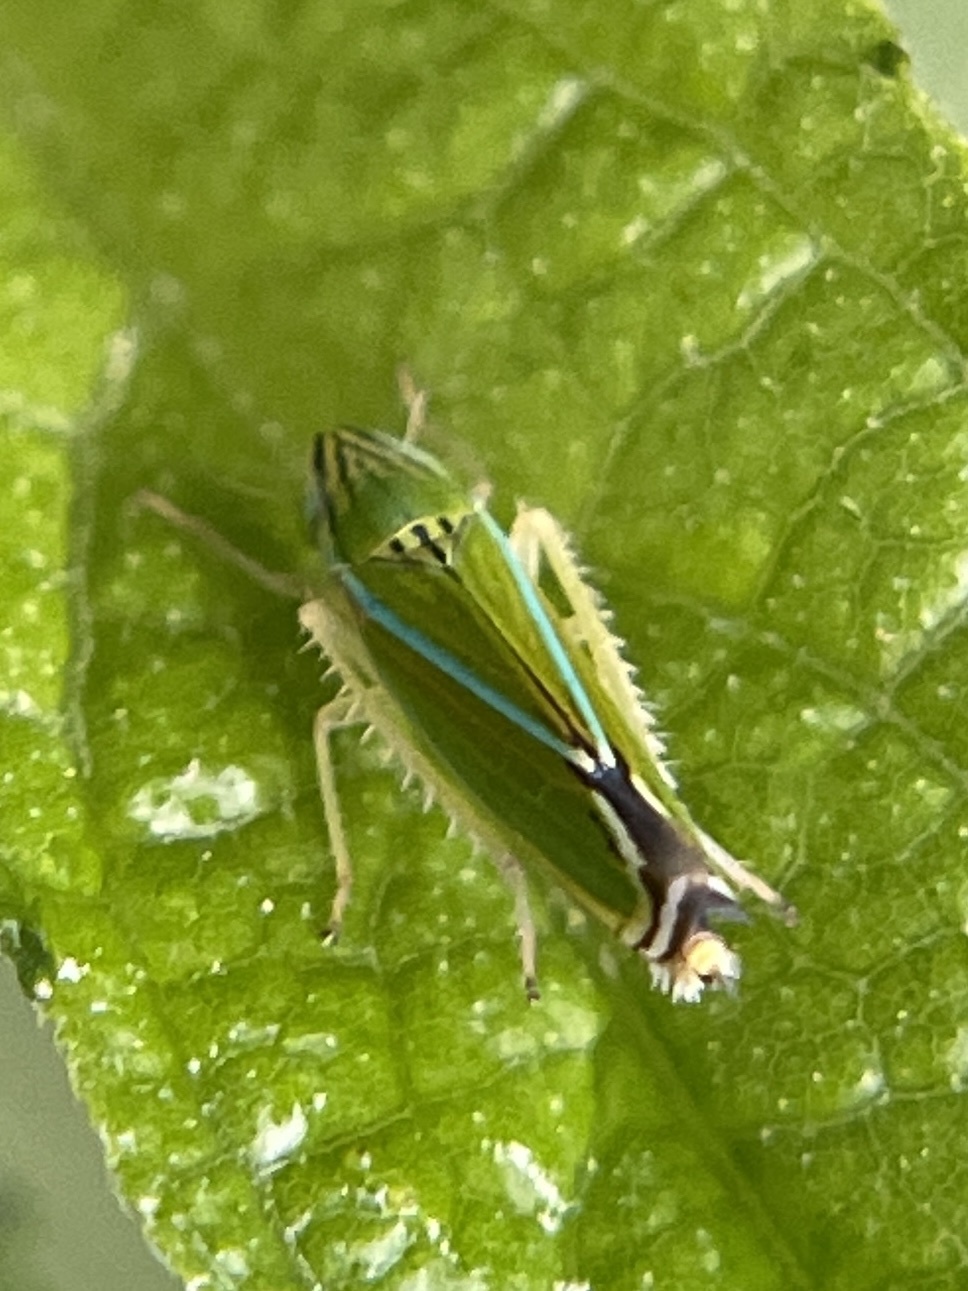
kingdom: Animalia
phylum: Arthropoda
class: Insecta
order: Hemiptera
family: Cicadellidae
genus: Sibovia
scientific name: Sibovia occatoria
